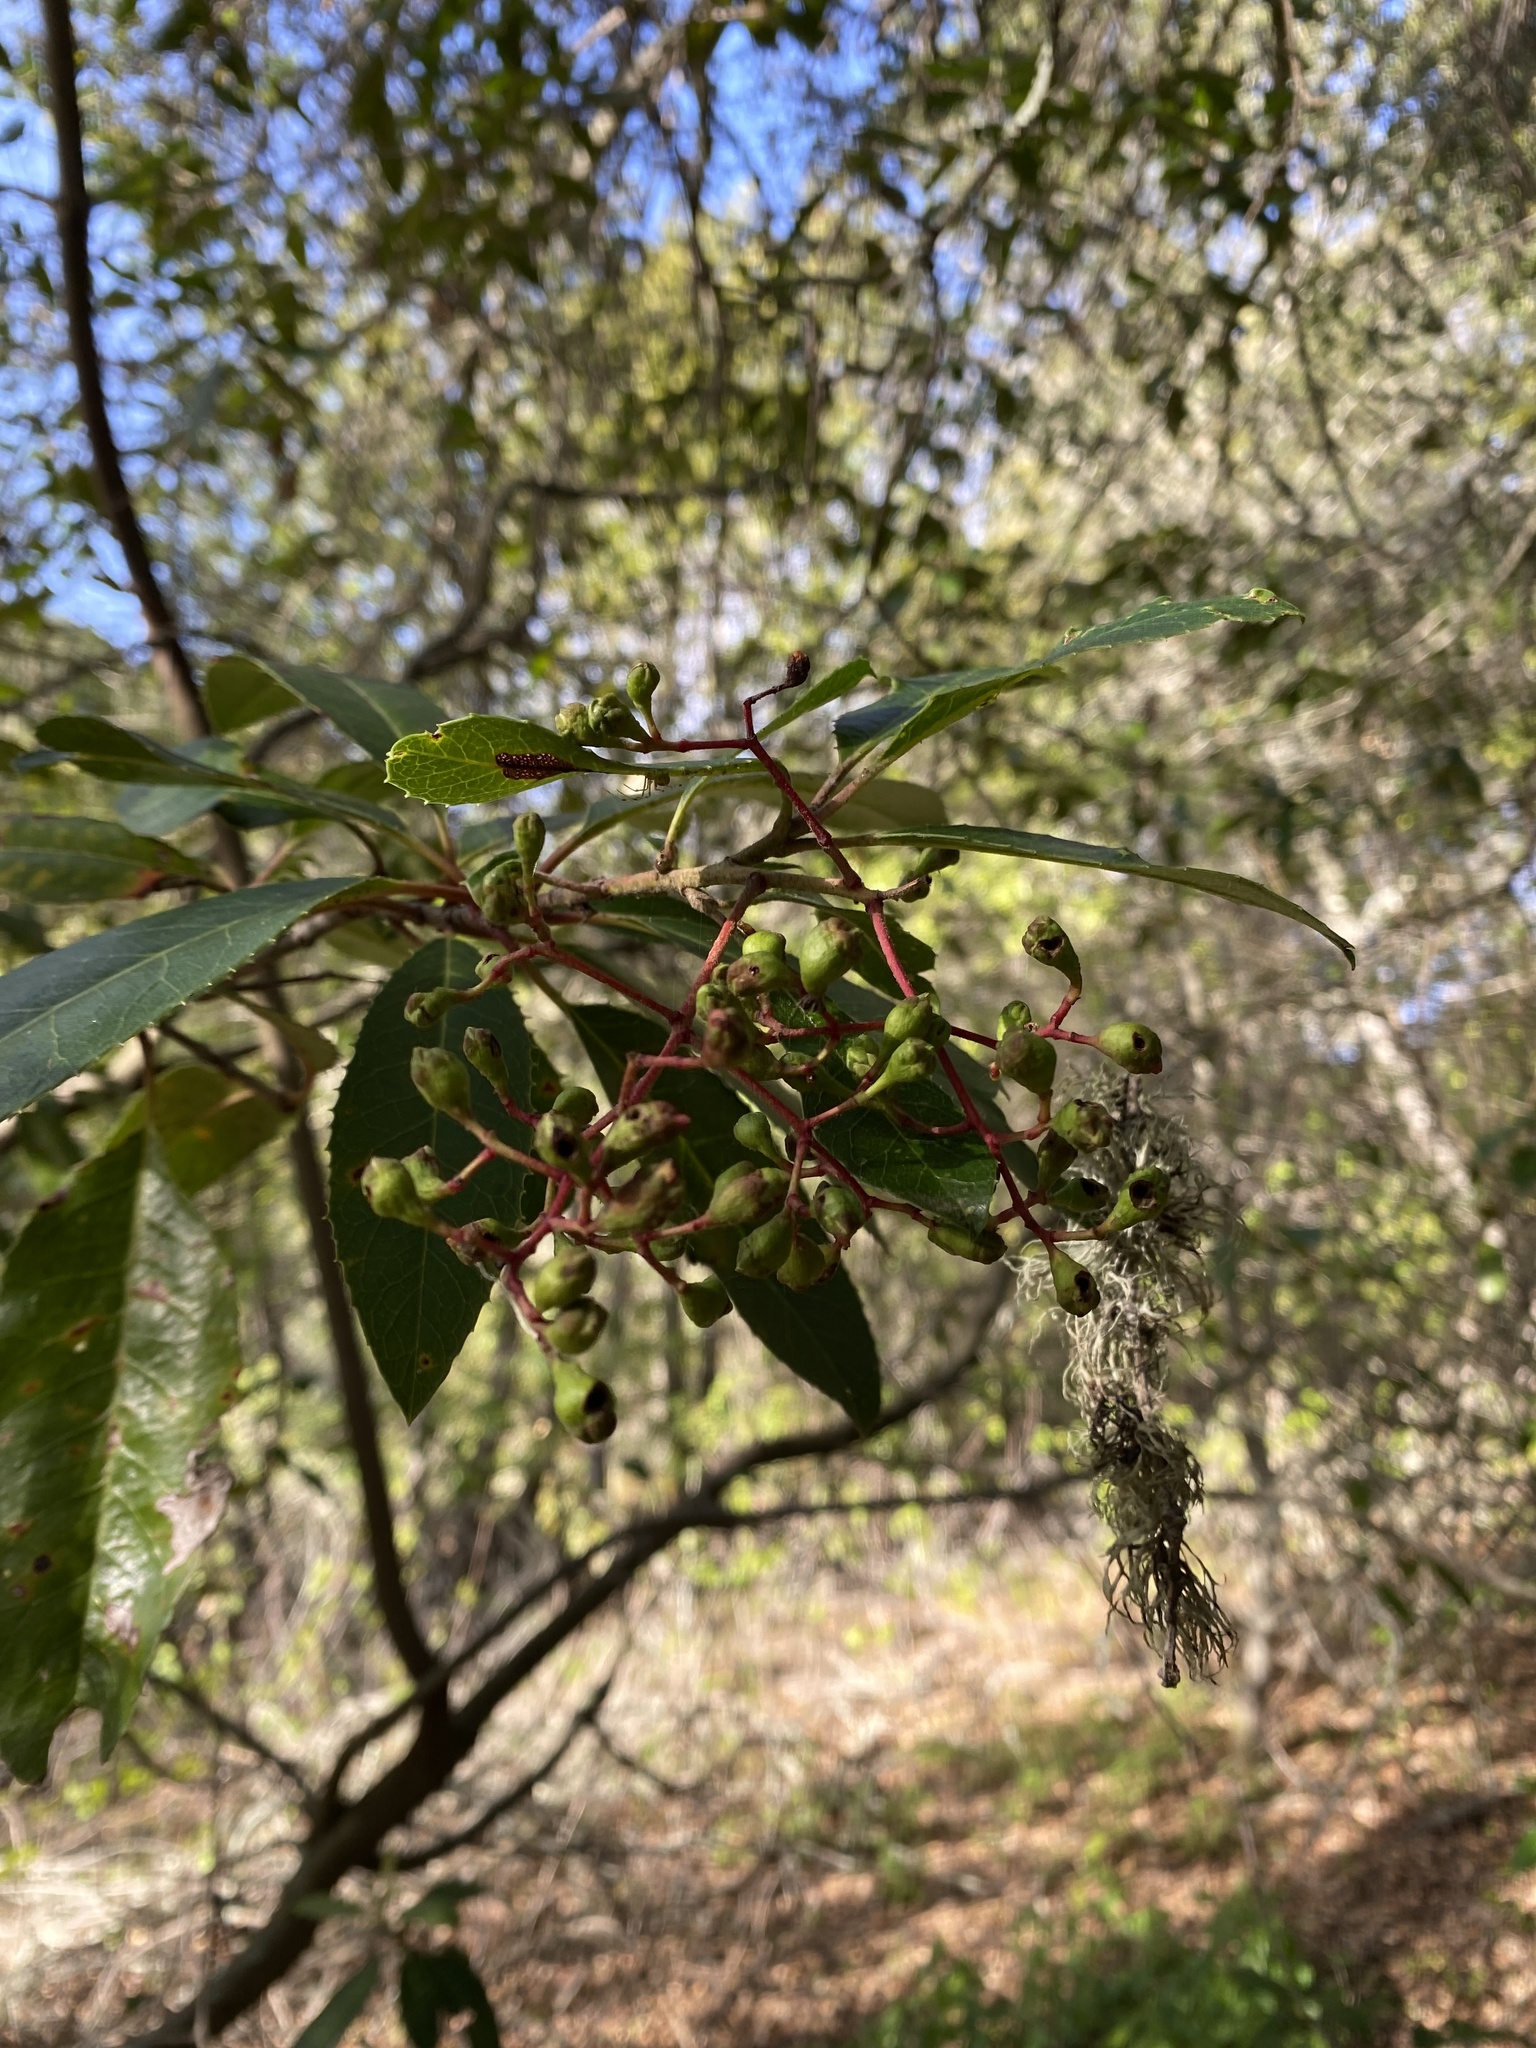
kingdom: Plantae
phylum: Tracheophyta
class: Magnoliopsida
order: Rosales
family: Rosaceae
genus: Heteromeles
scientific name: Heteromeles arbutifolia
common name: California-holly
